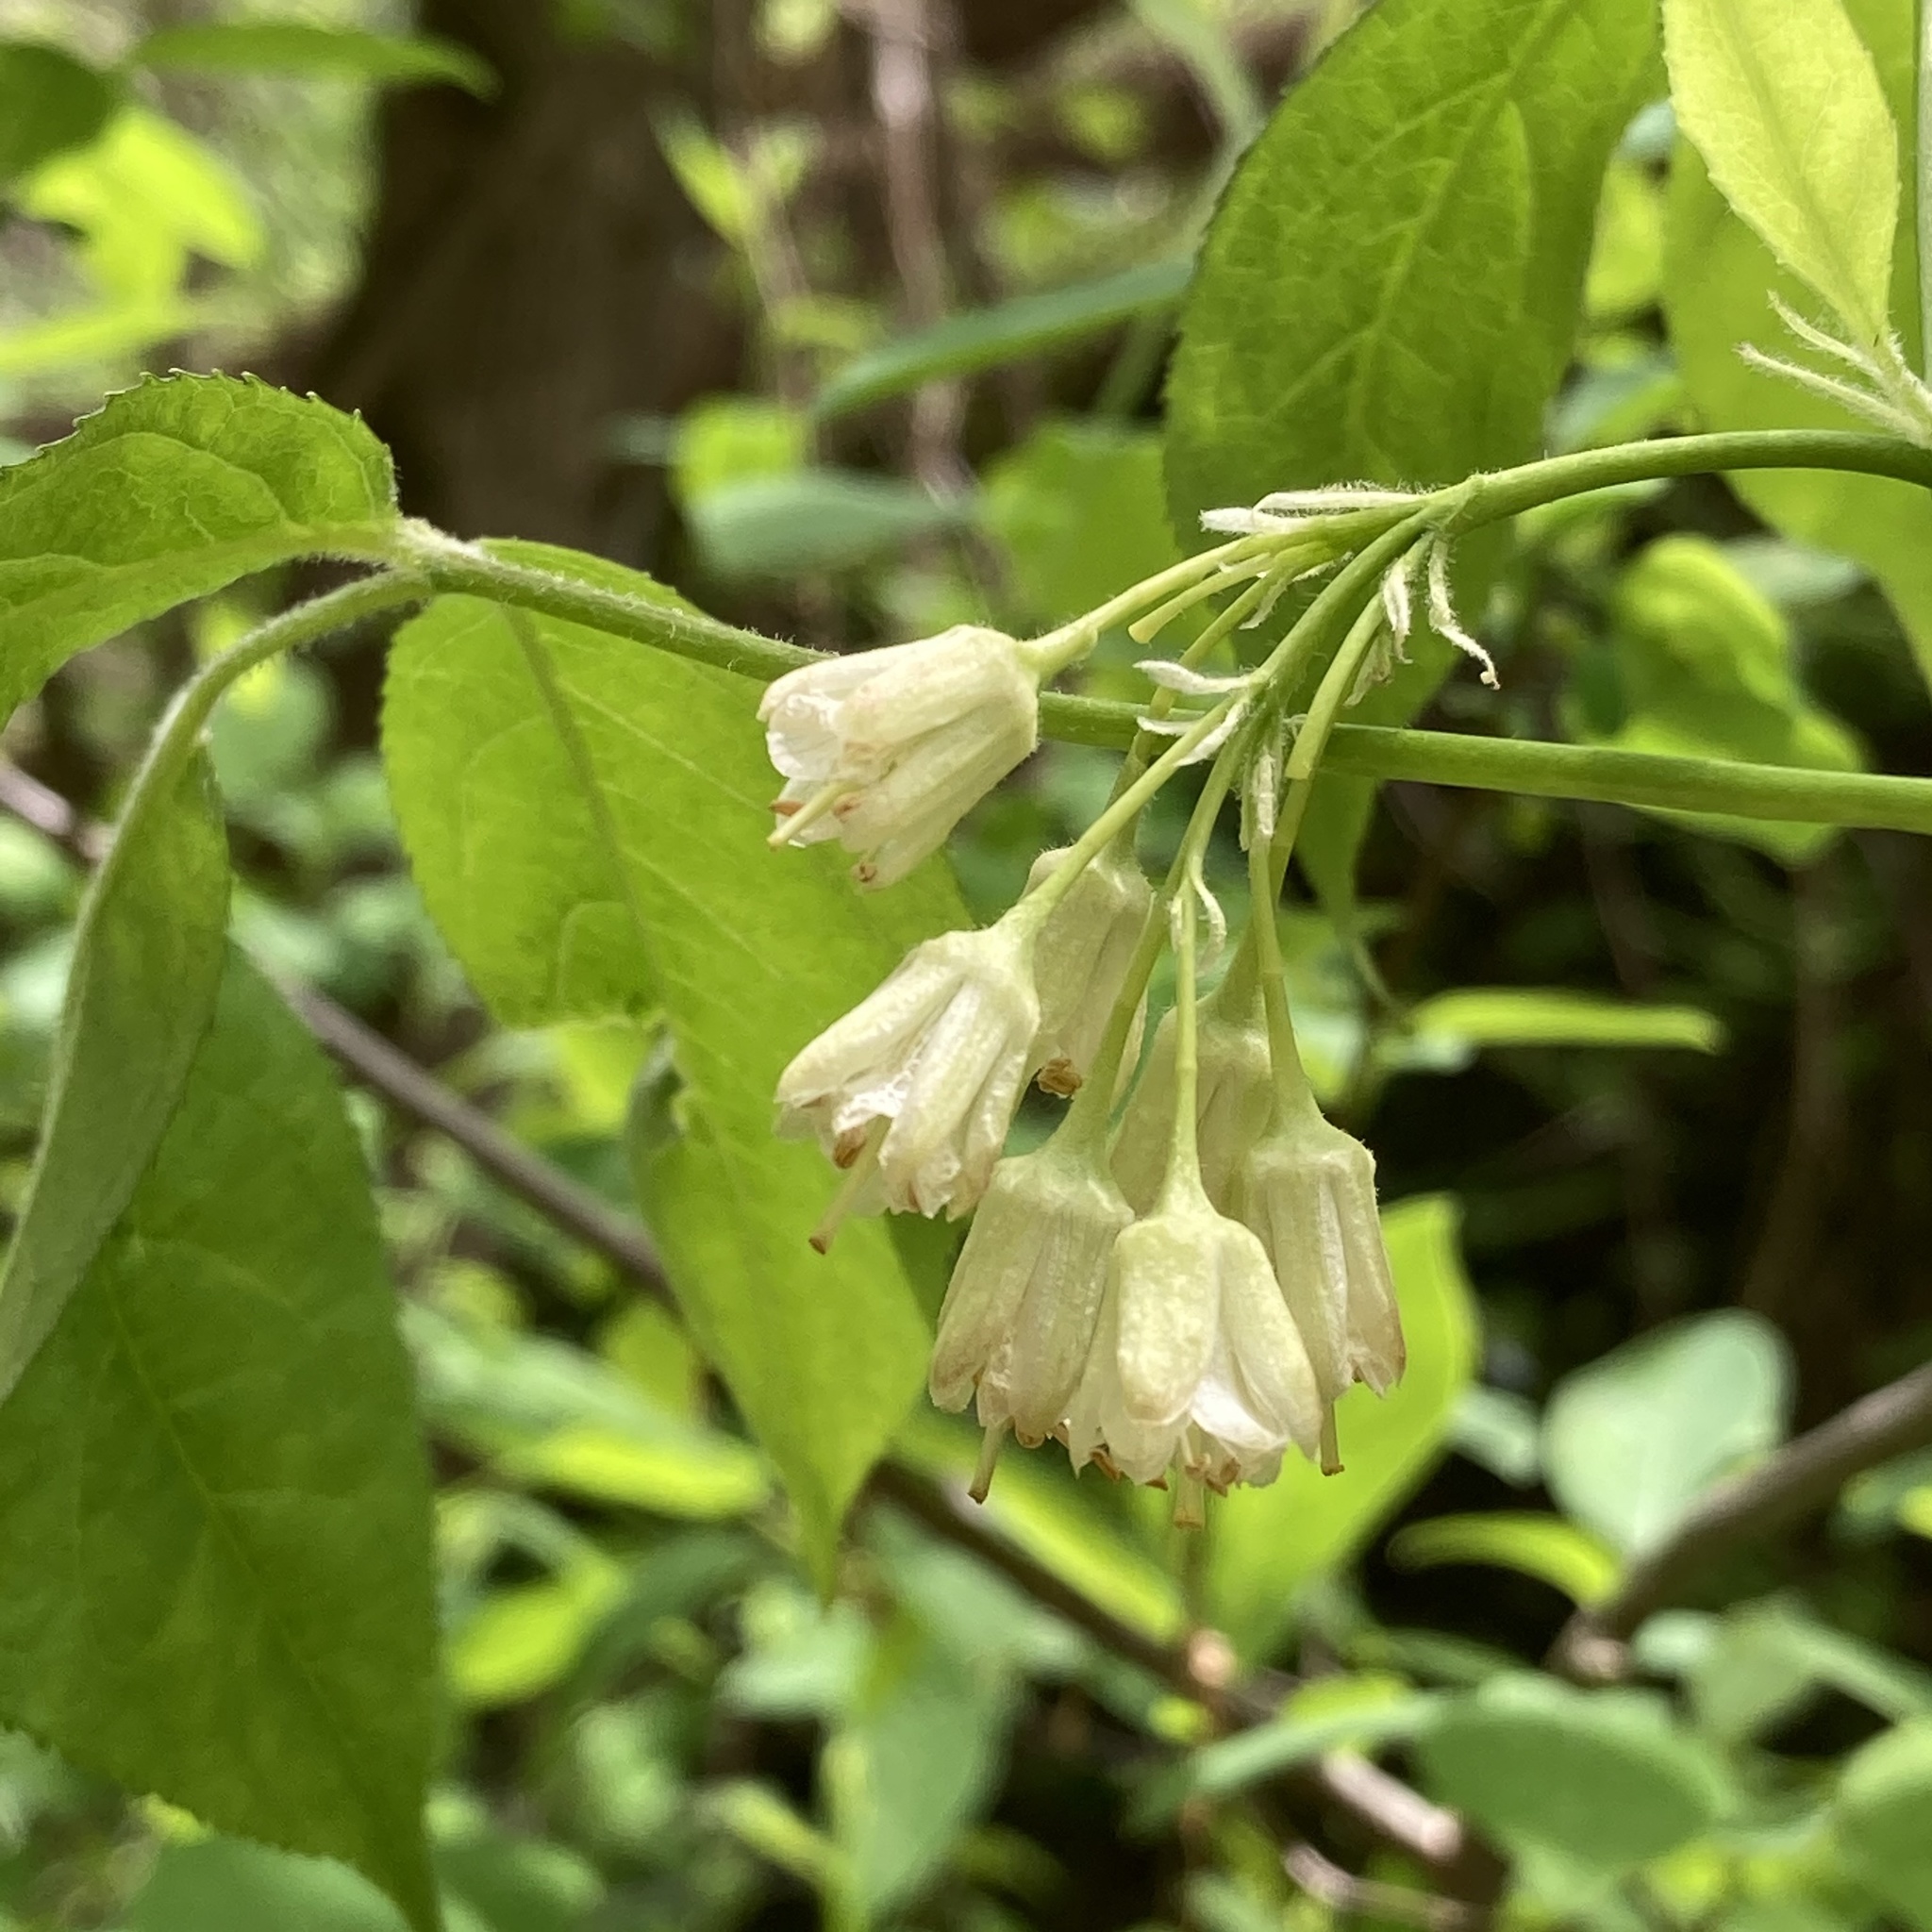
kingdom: Plantae
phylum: Tracheophyta
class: Magnoliopsida
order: Crossosomatales
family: Staphyleaceae
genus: Staphylea
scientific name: Staphylea trifolia
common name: American bladdernut
